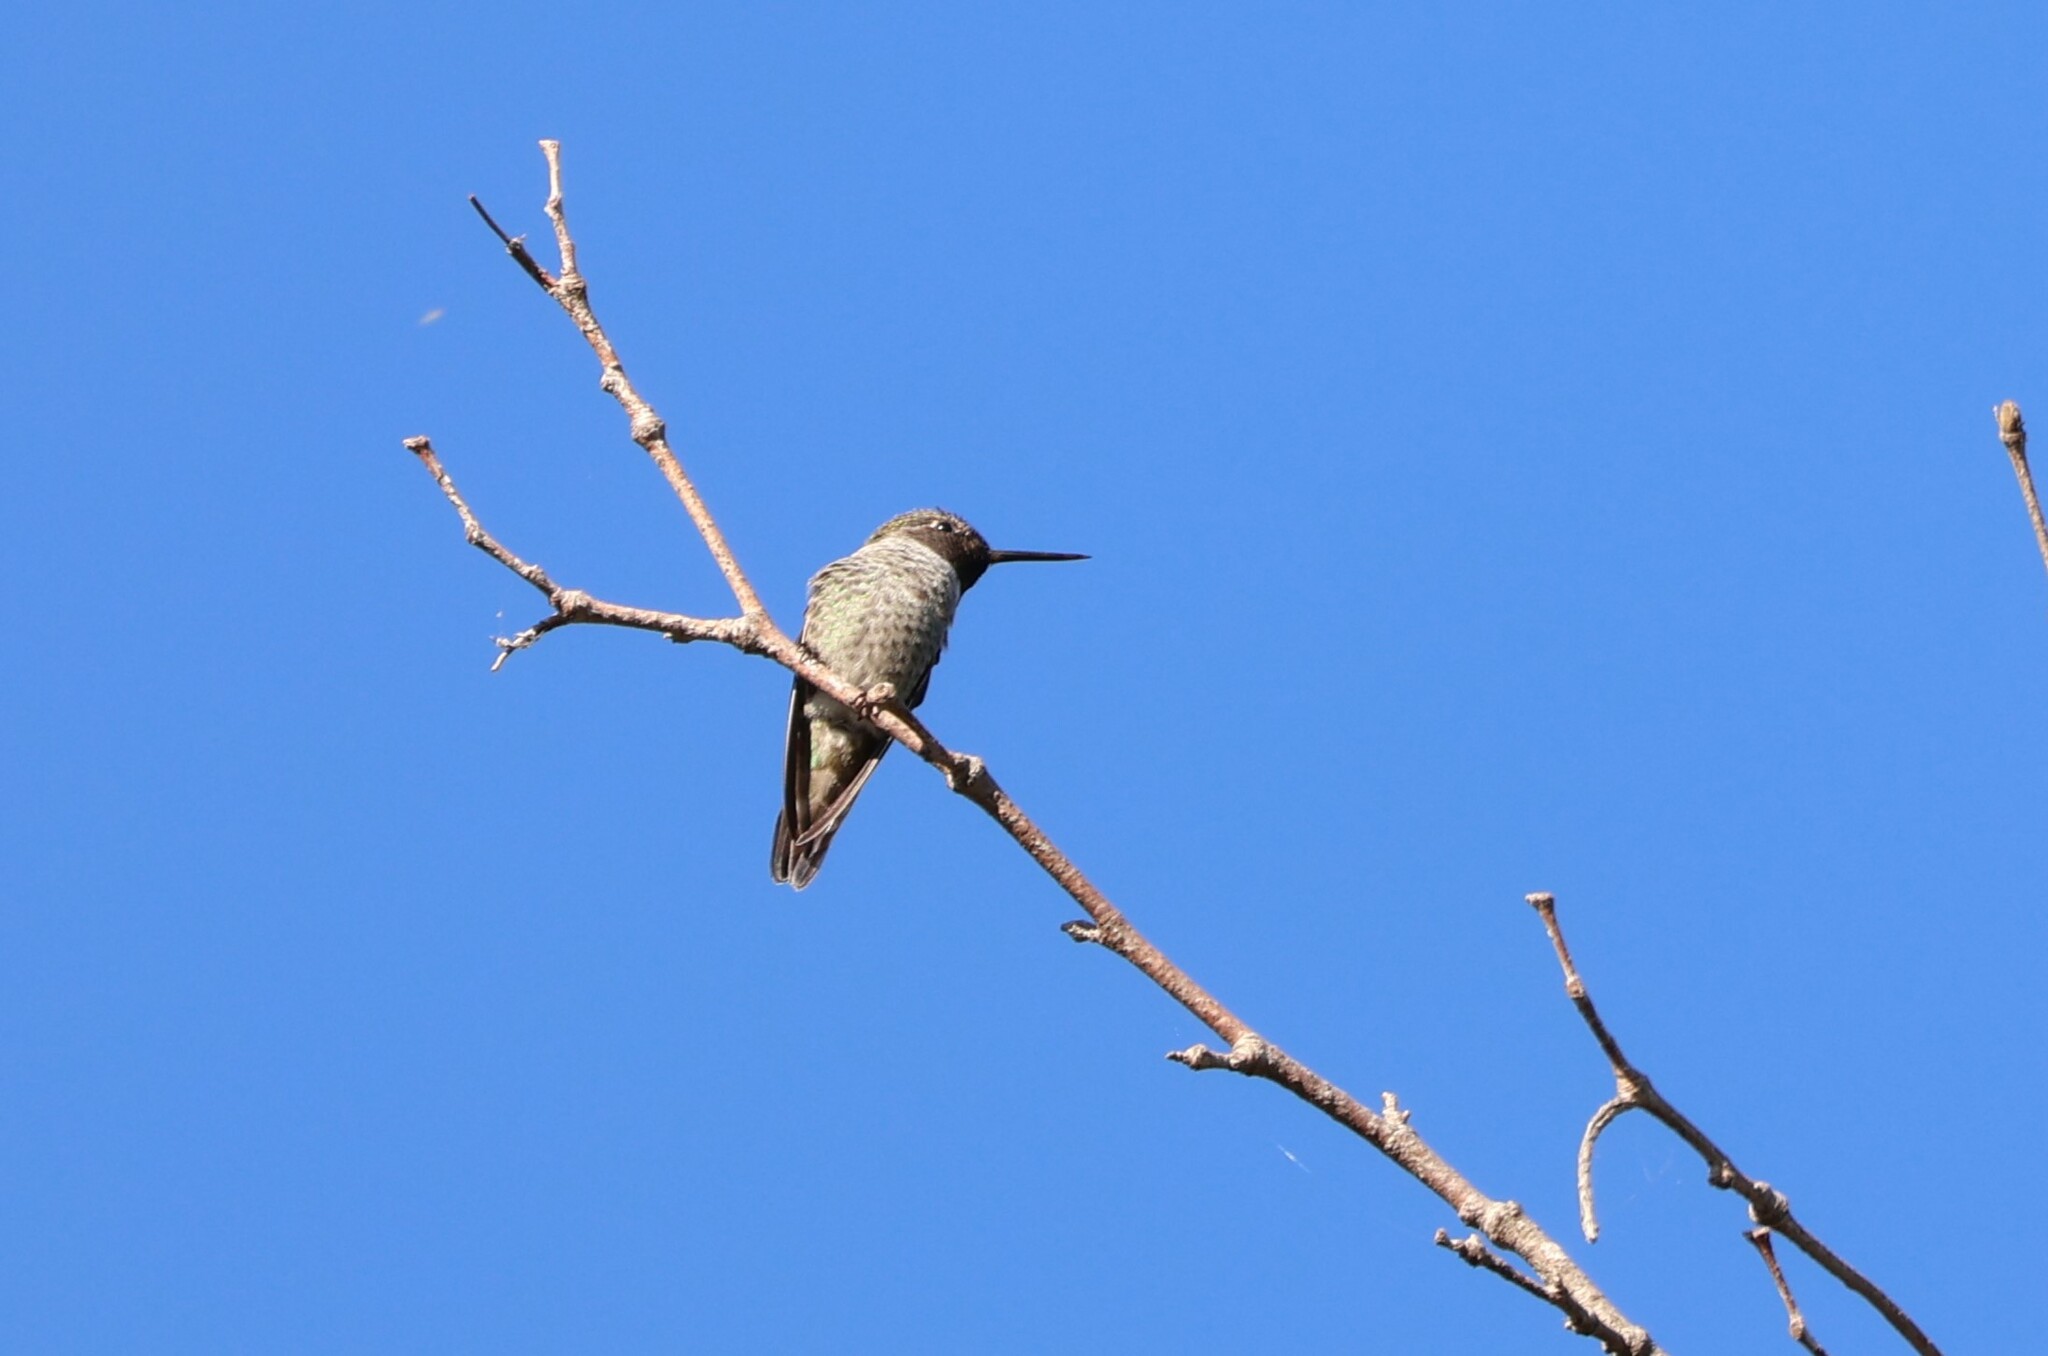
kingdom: Animalia
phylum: Chordata
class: Aves
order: Apodiformes
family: Trochilidae
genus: Calypte
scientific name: Calypte anna
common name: Anna's hummingbird
